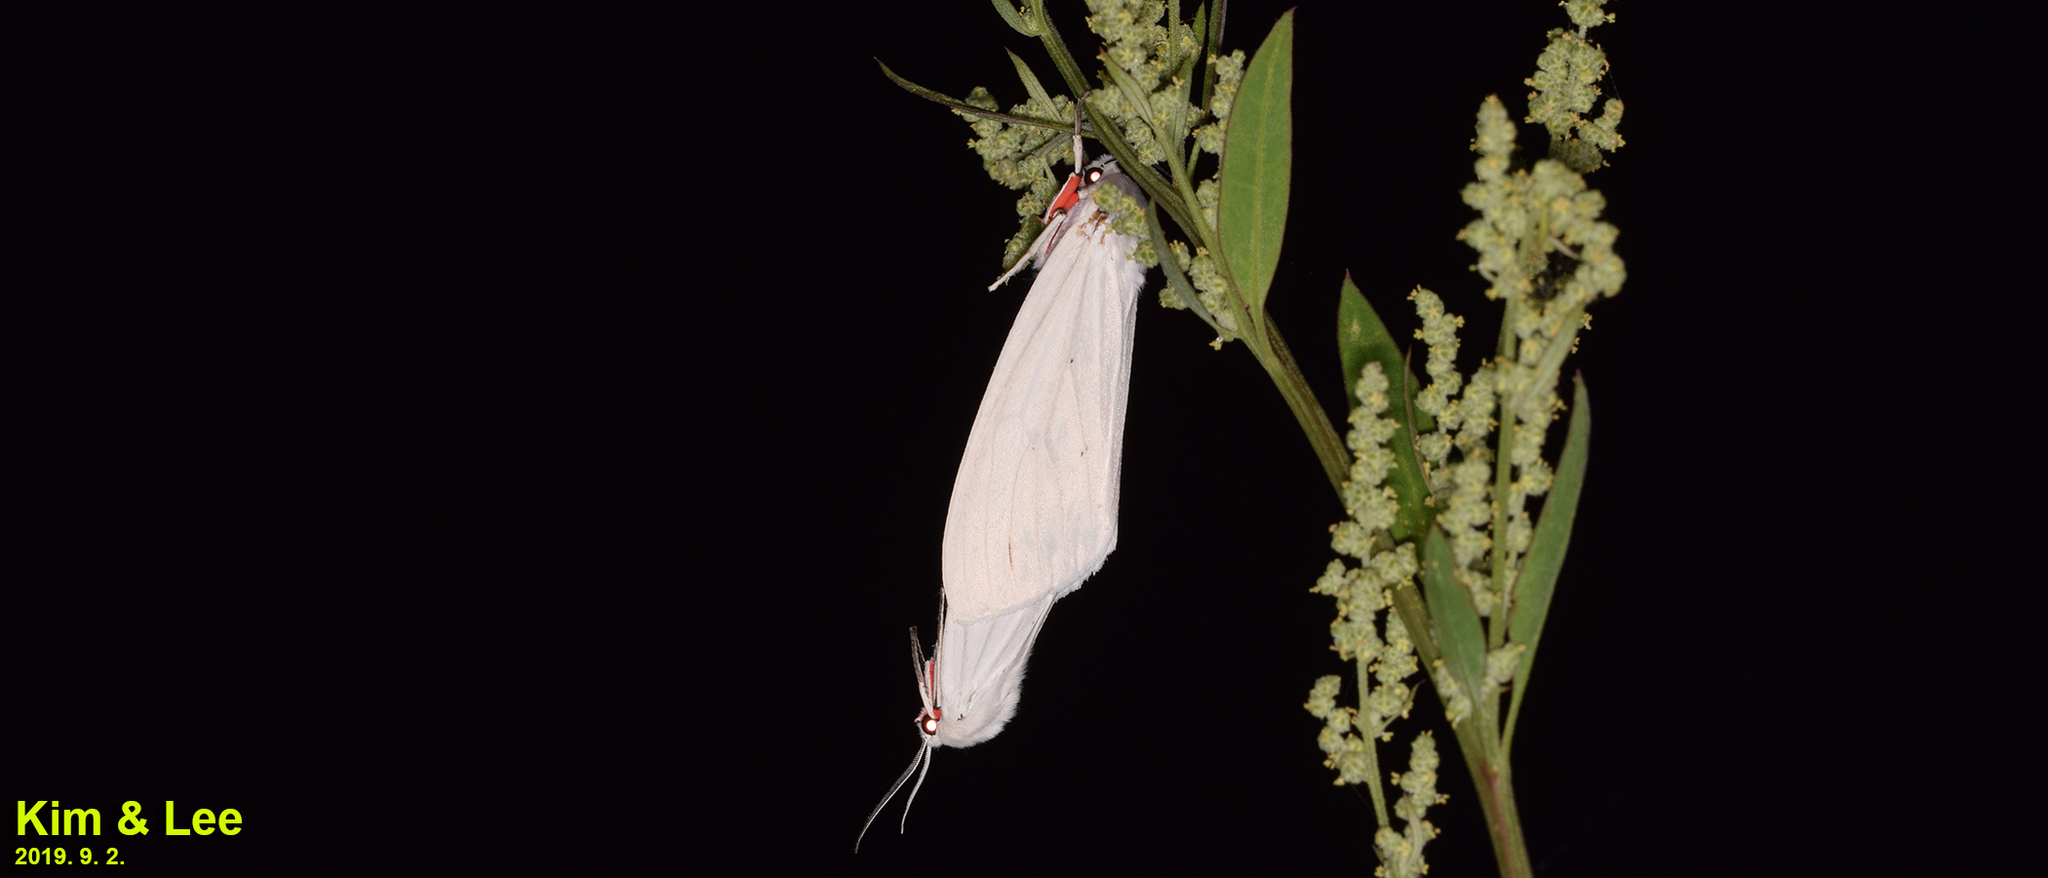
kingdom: Animalia
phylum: Arthropoda
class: Insecta
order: Lepidoptera
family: Erebidae
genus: Chionarctia
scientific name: Chionarctia nivea
